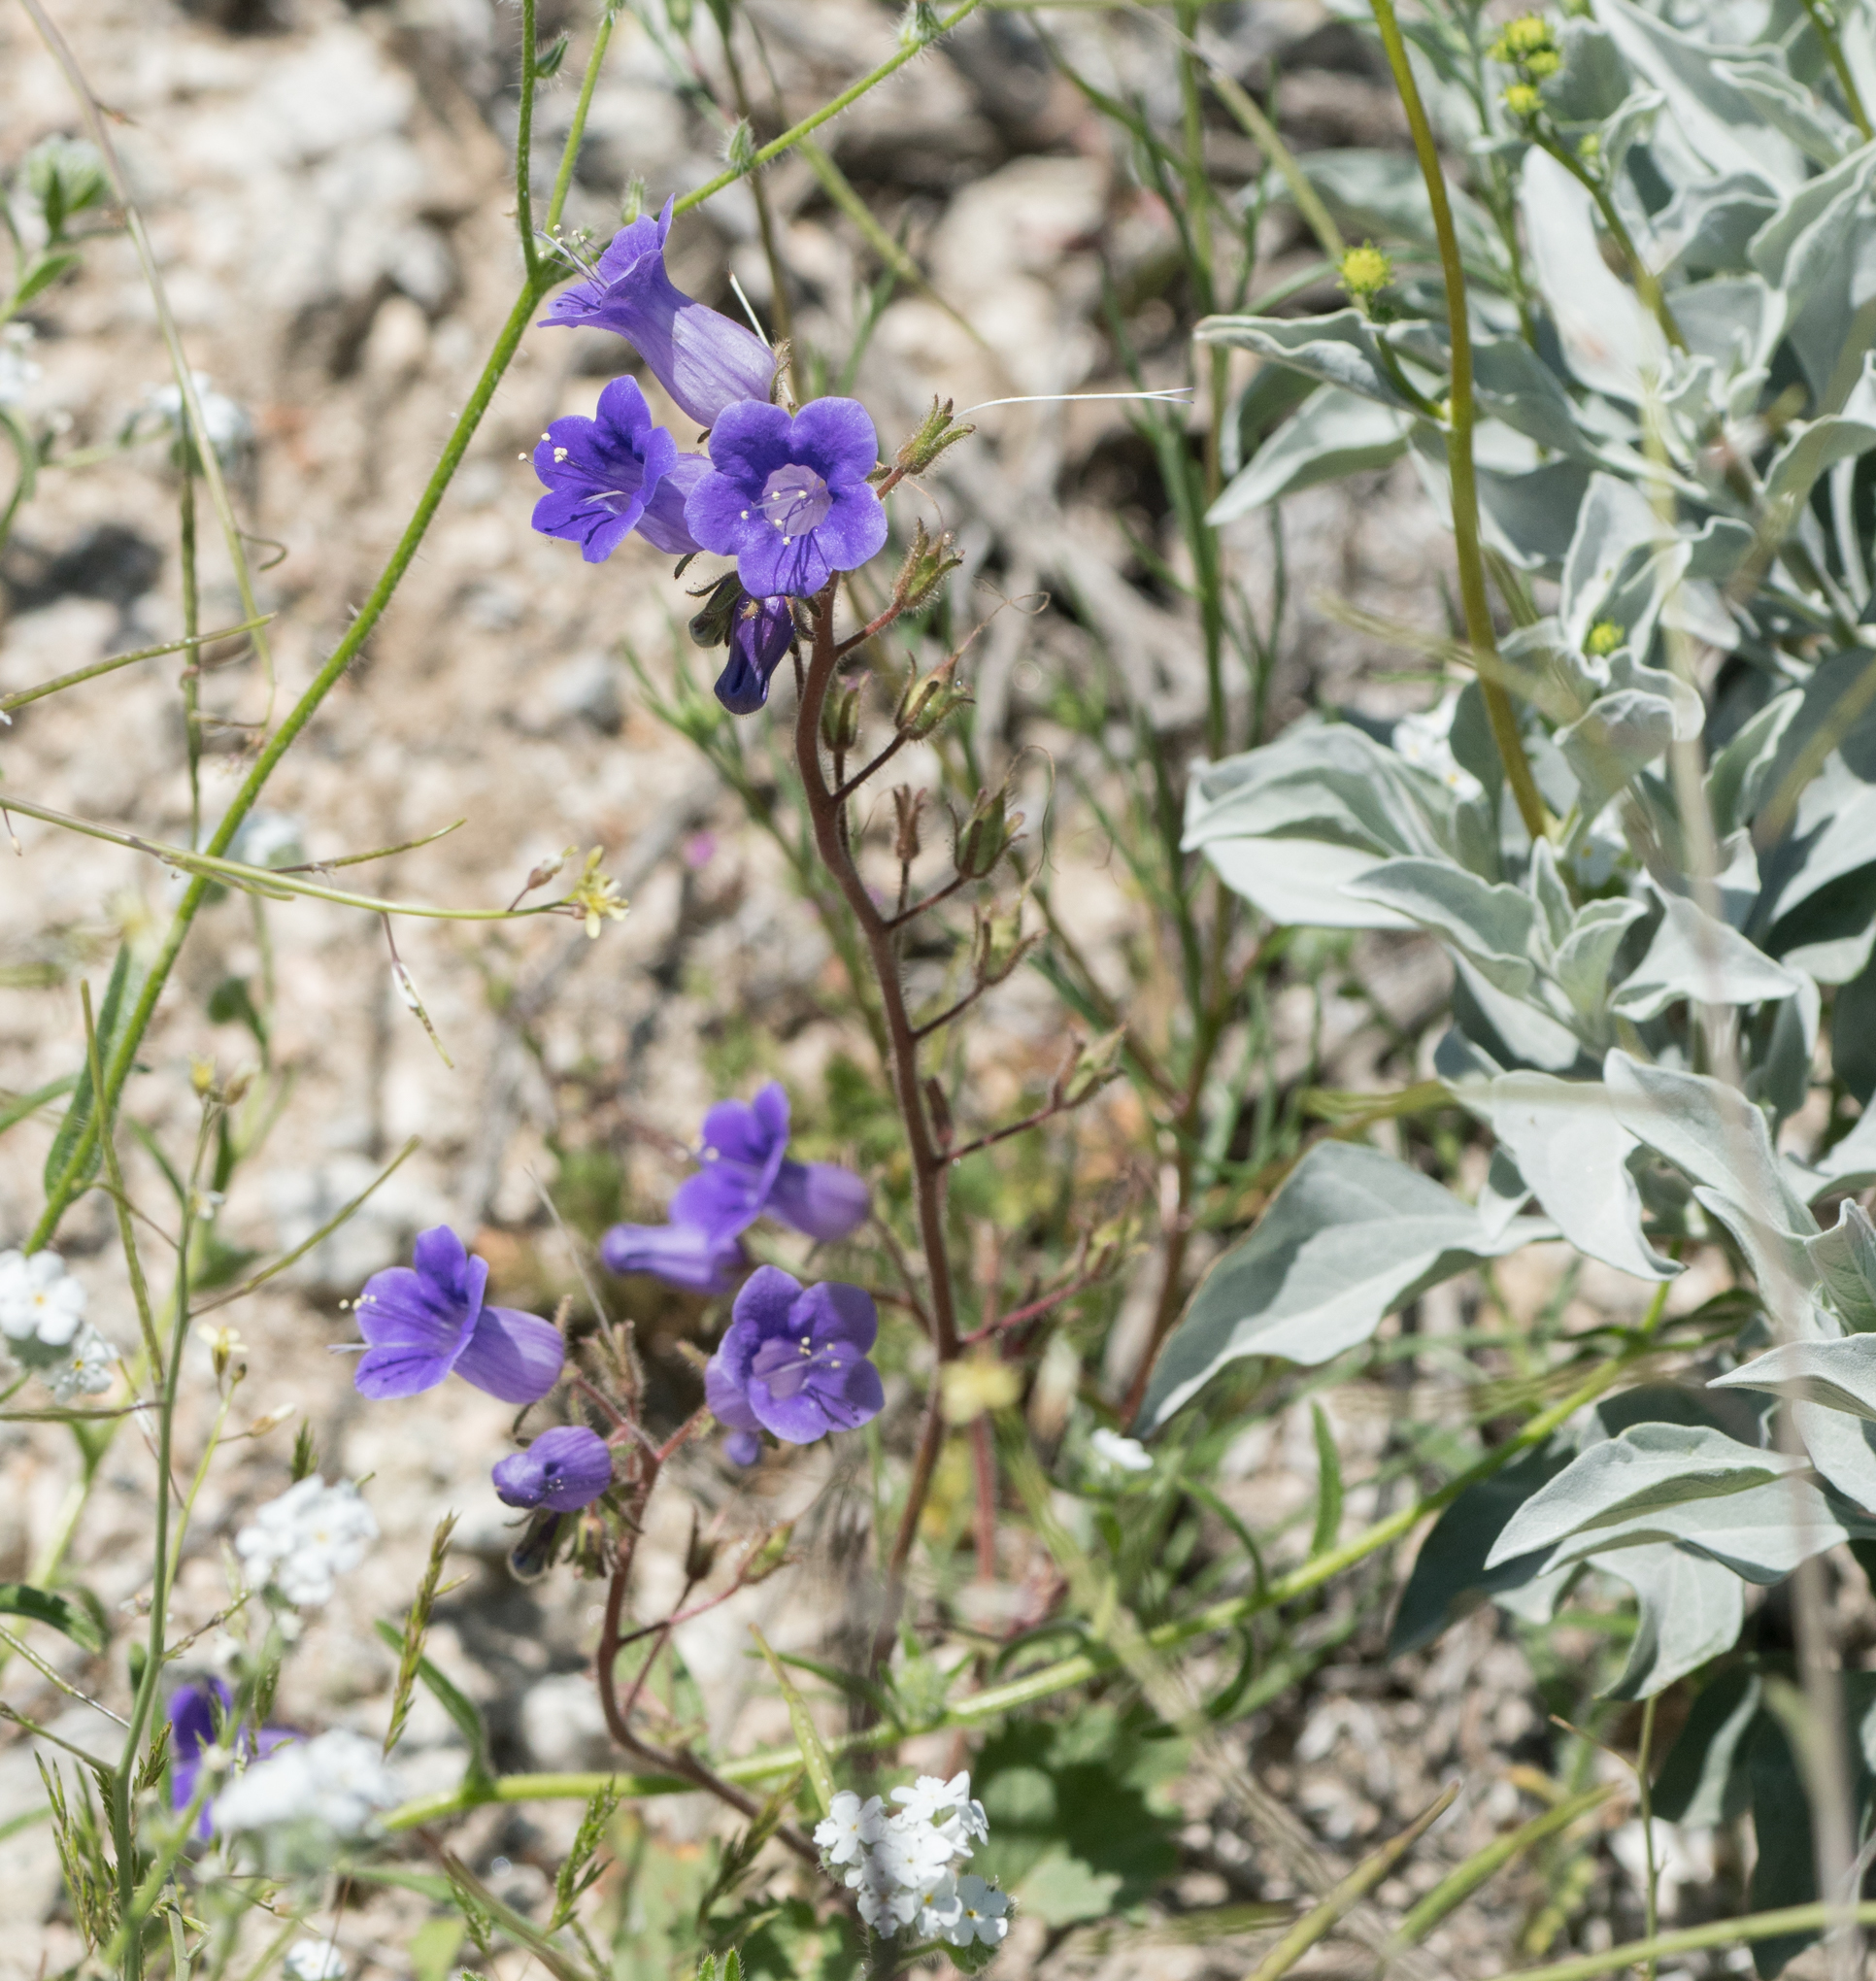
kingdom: Plantae
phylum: Tracheophyta
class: Magnoliopsida
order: Boraginales
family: Hydrophyllaceae
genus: Phacelia
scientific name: Phacelia minor
